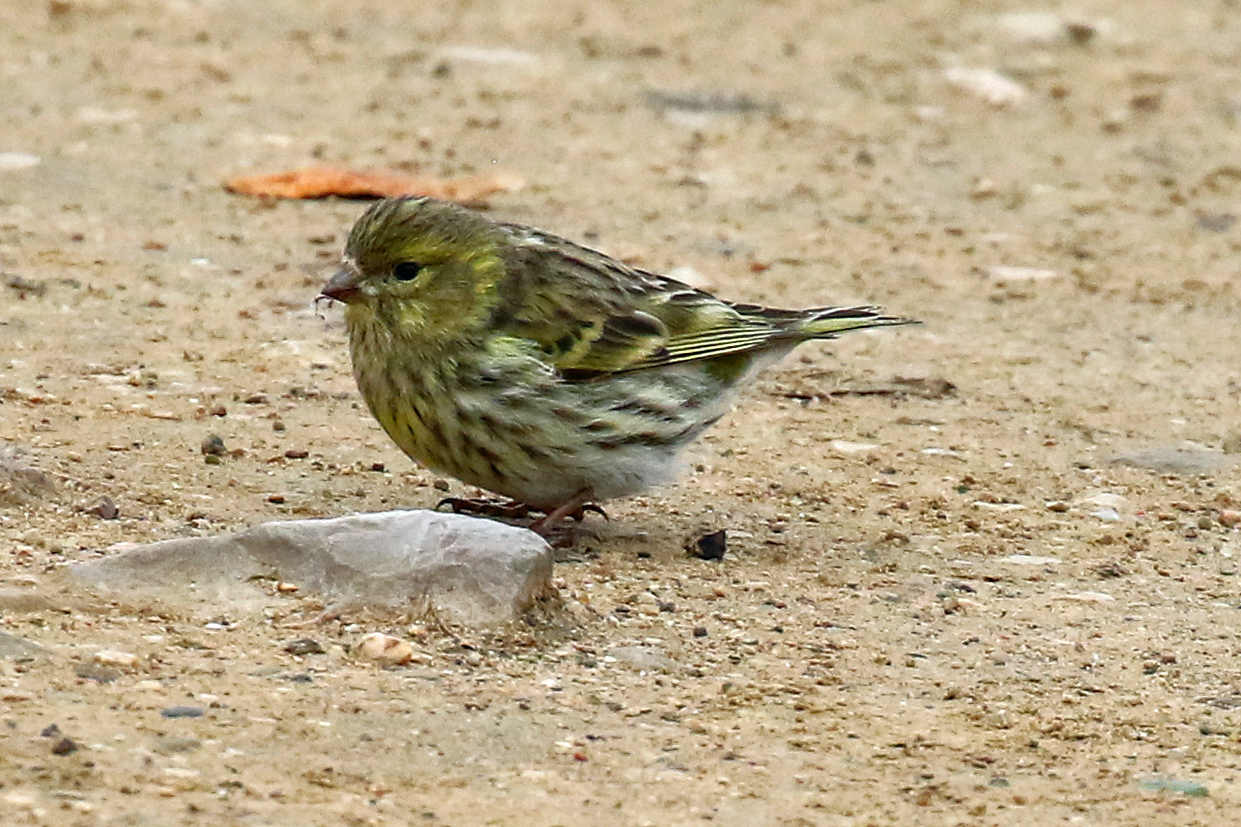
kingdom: Animalia
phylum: Chordata
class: Aves
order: Passeriformes
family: Fringillidae
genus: Serinus
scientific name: Serinus serinus
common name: European serin
